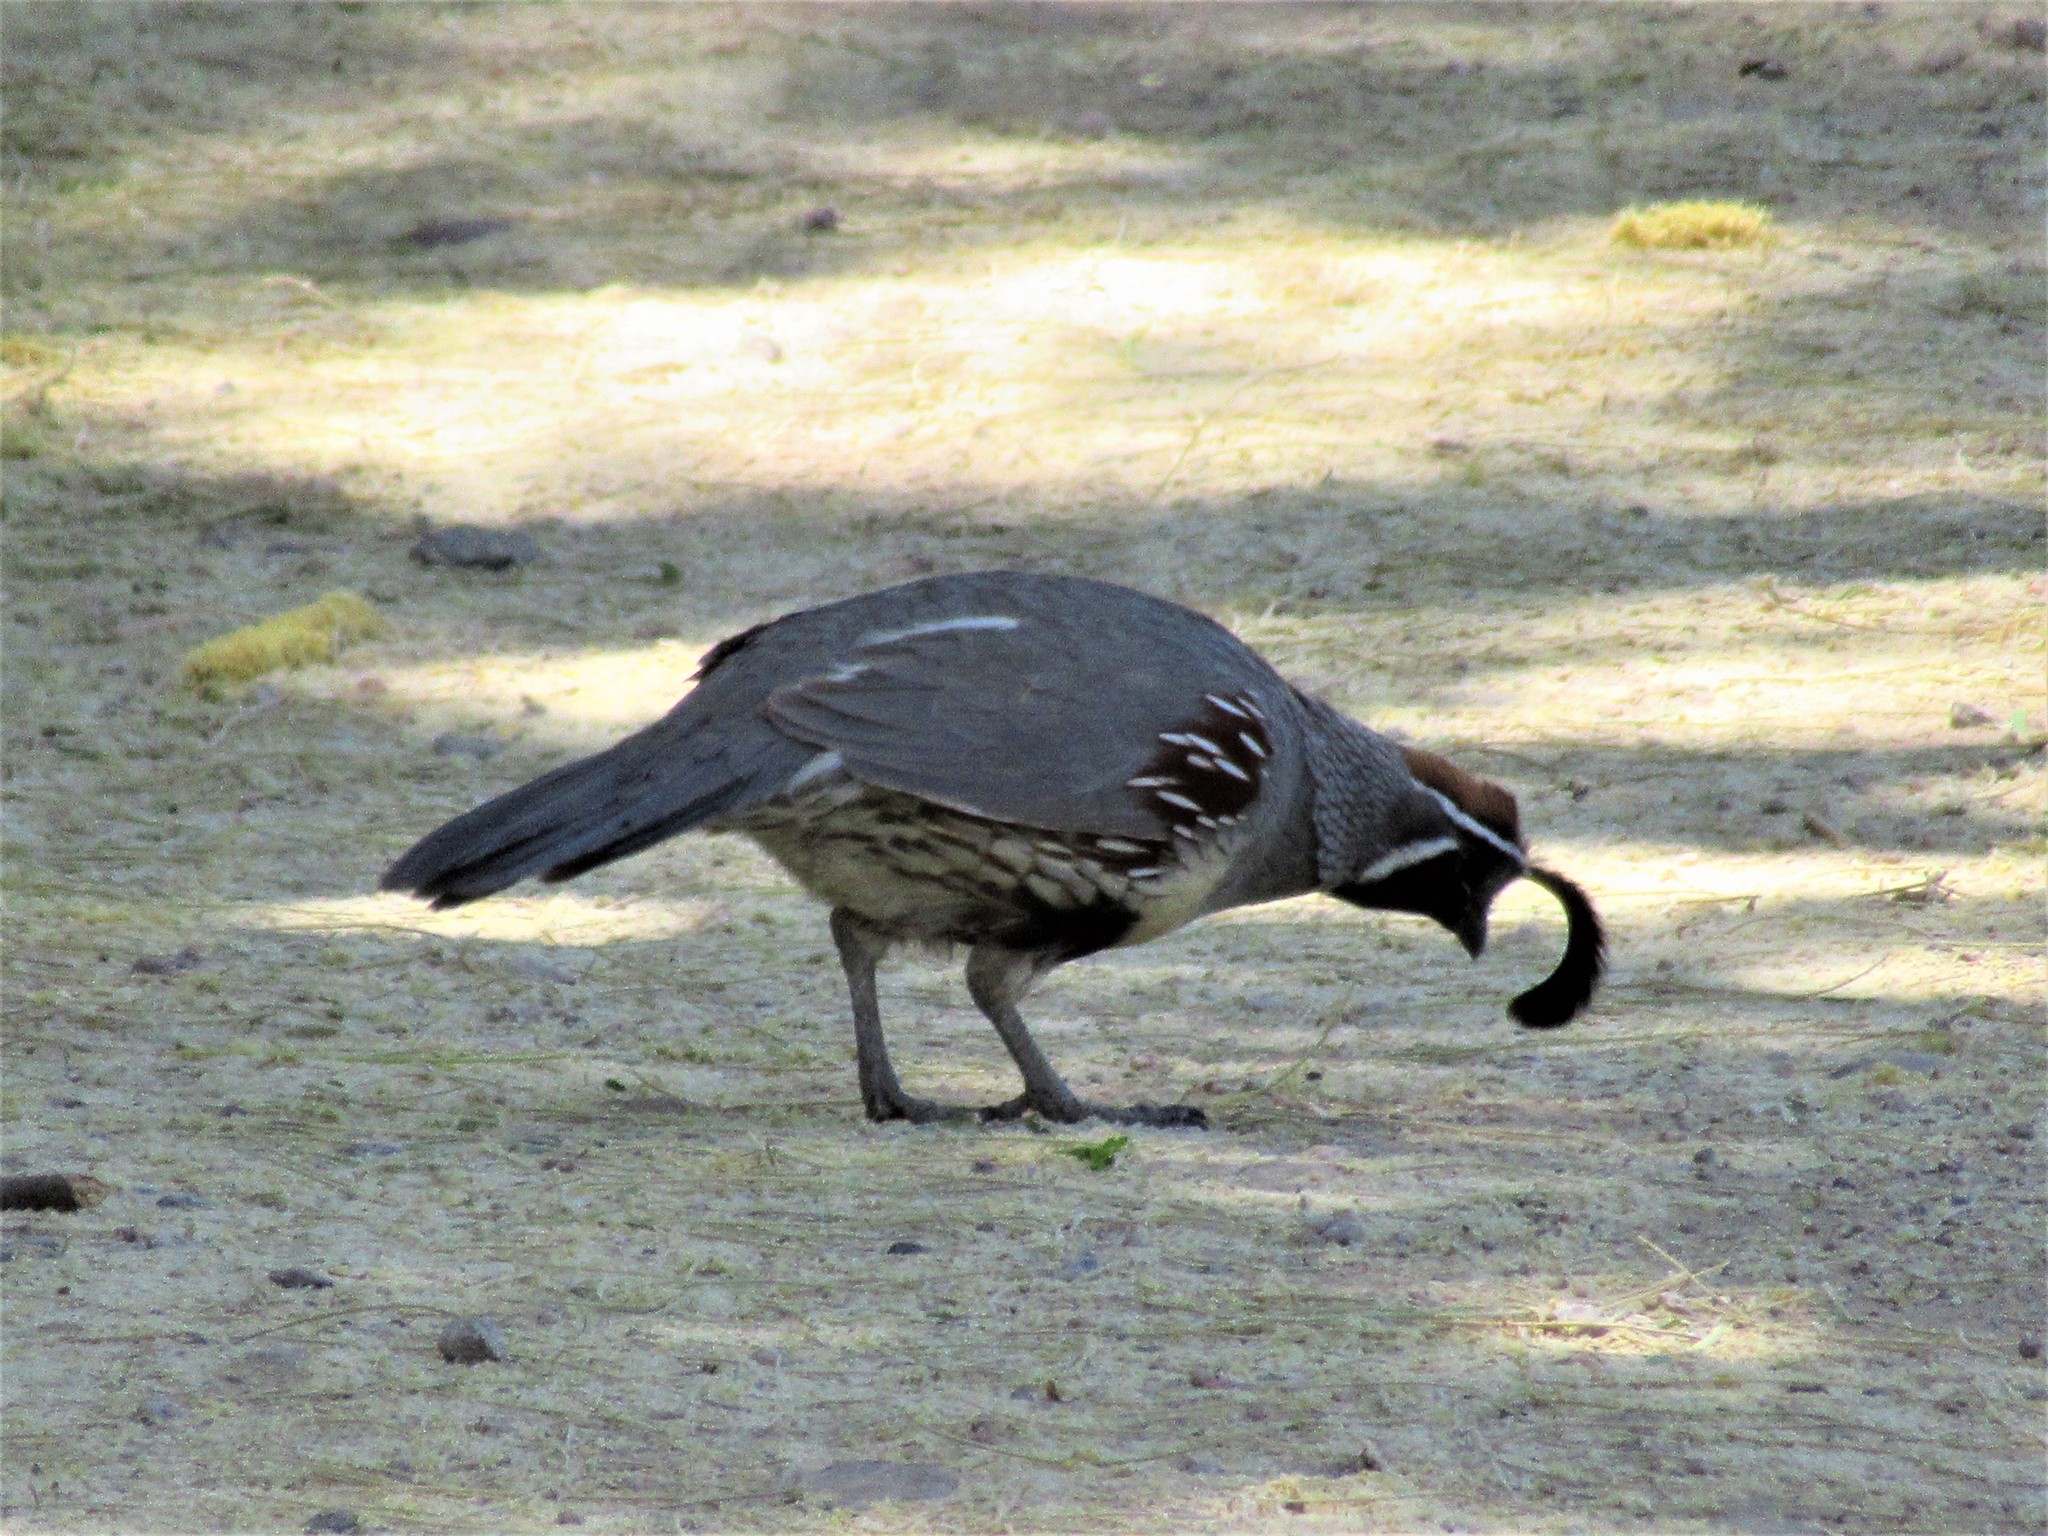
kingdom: Animalia
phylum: Chordata
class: Aves
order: Galliformes
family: Odontophoridae
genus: Callipepla
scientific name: Callipepla gambelii
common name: Gambel's quail
